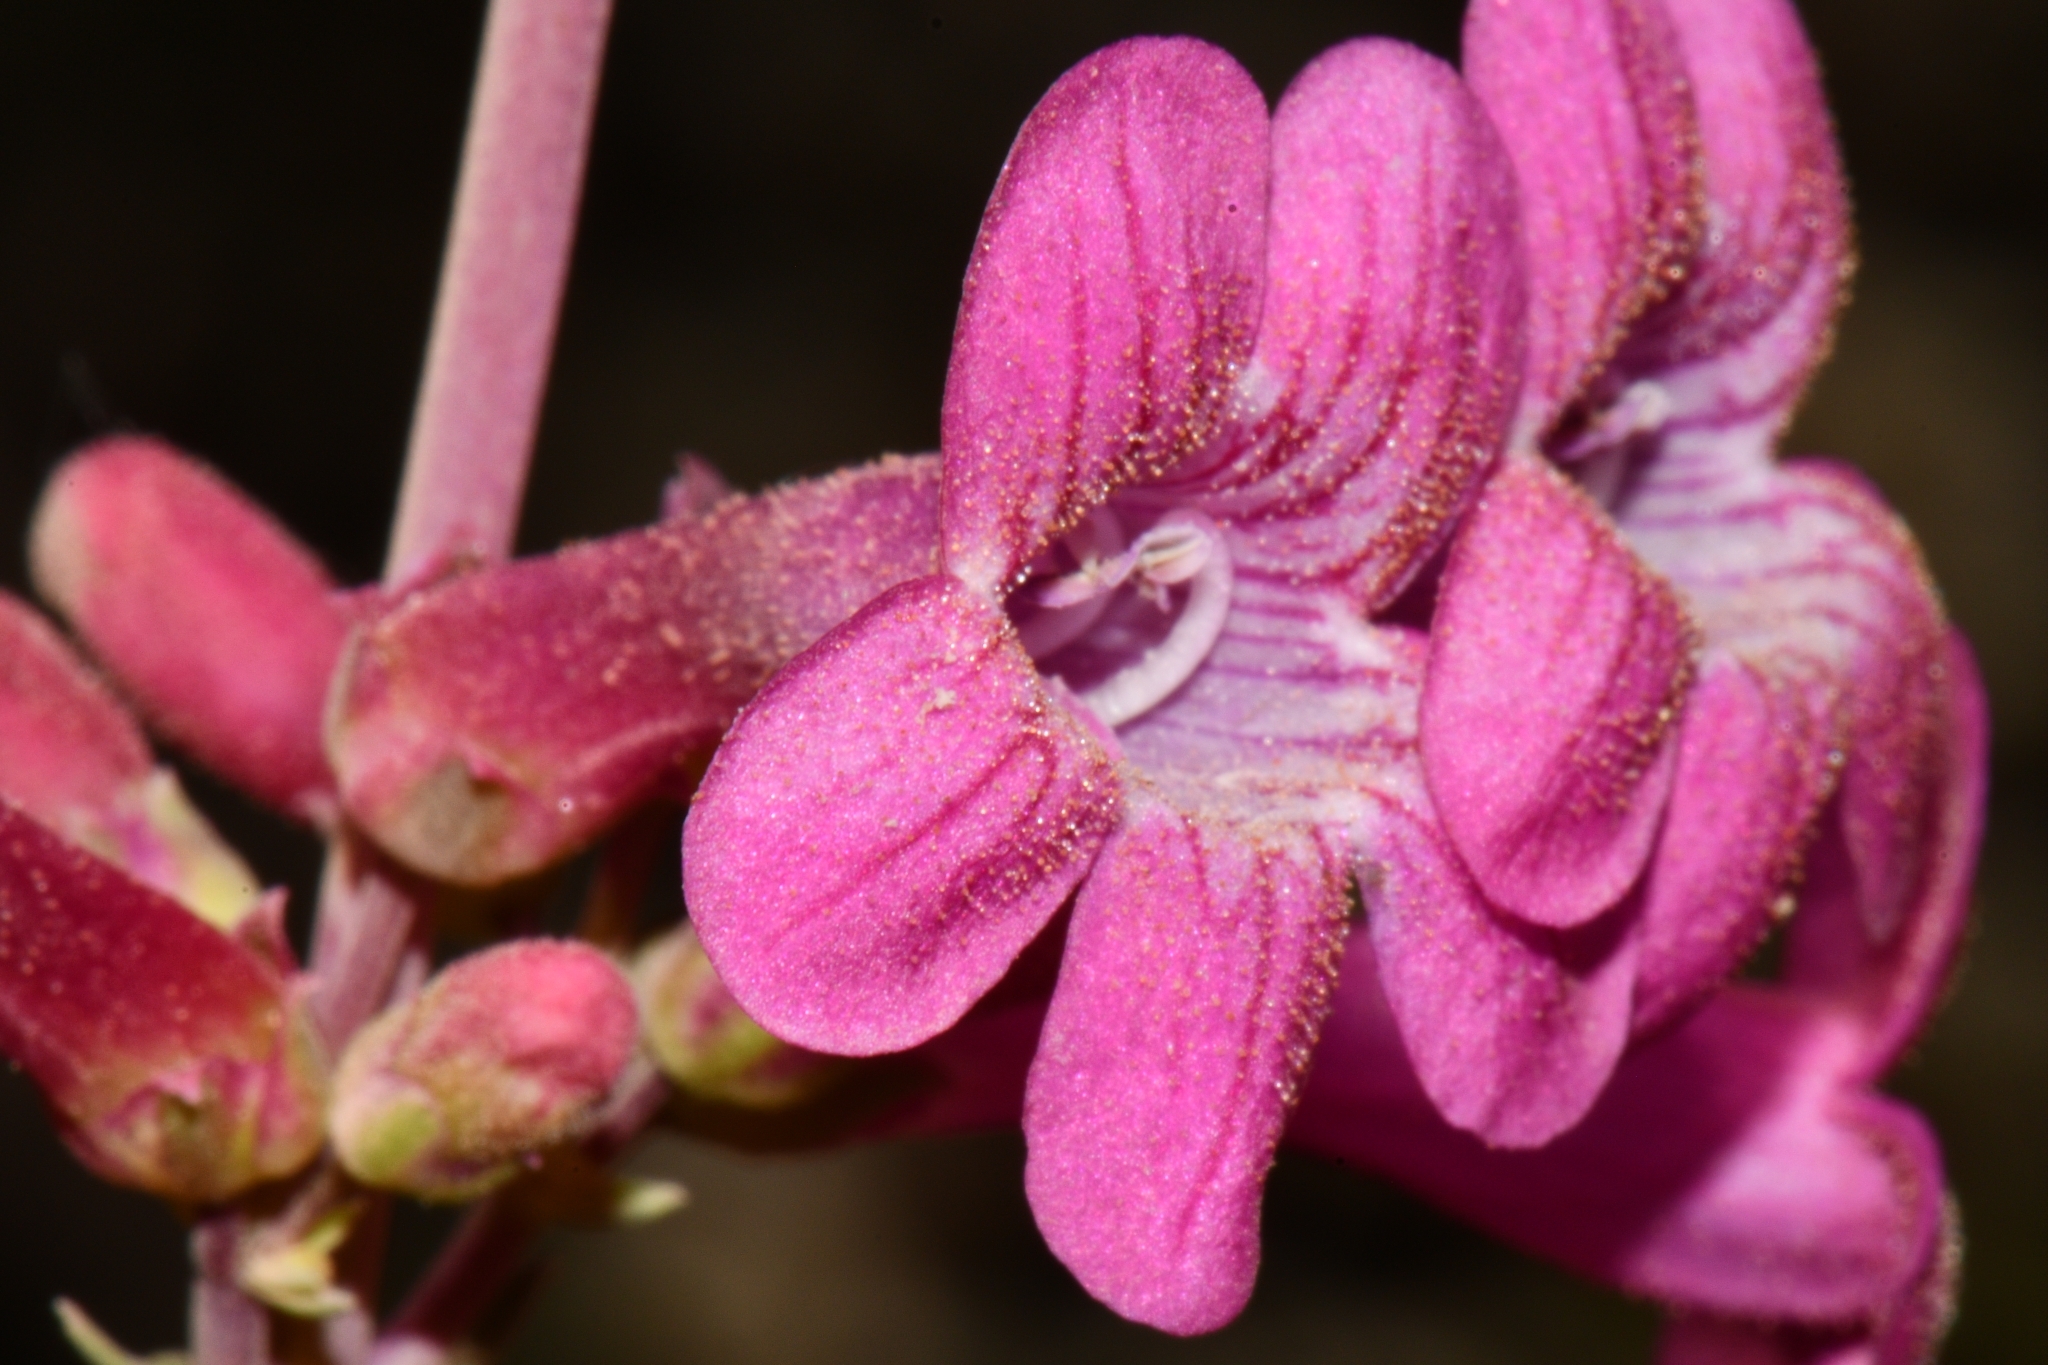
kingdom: Plantae
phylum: Tracheophyta
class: Magnoliopsida
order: Lamiales
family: Plantaginaceae
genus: Penstemon
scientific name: Penstemon confusus
